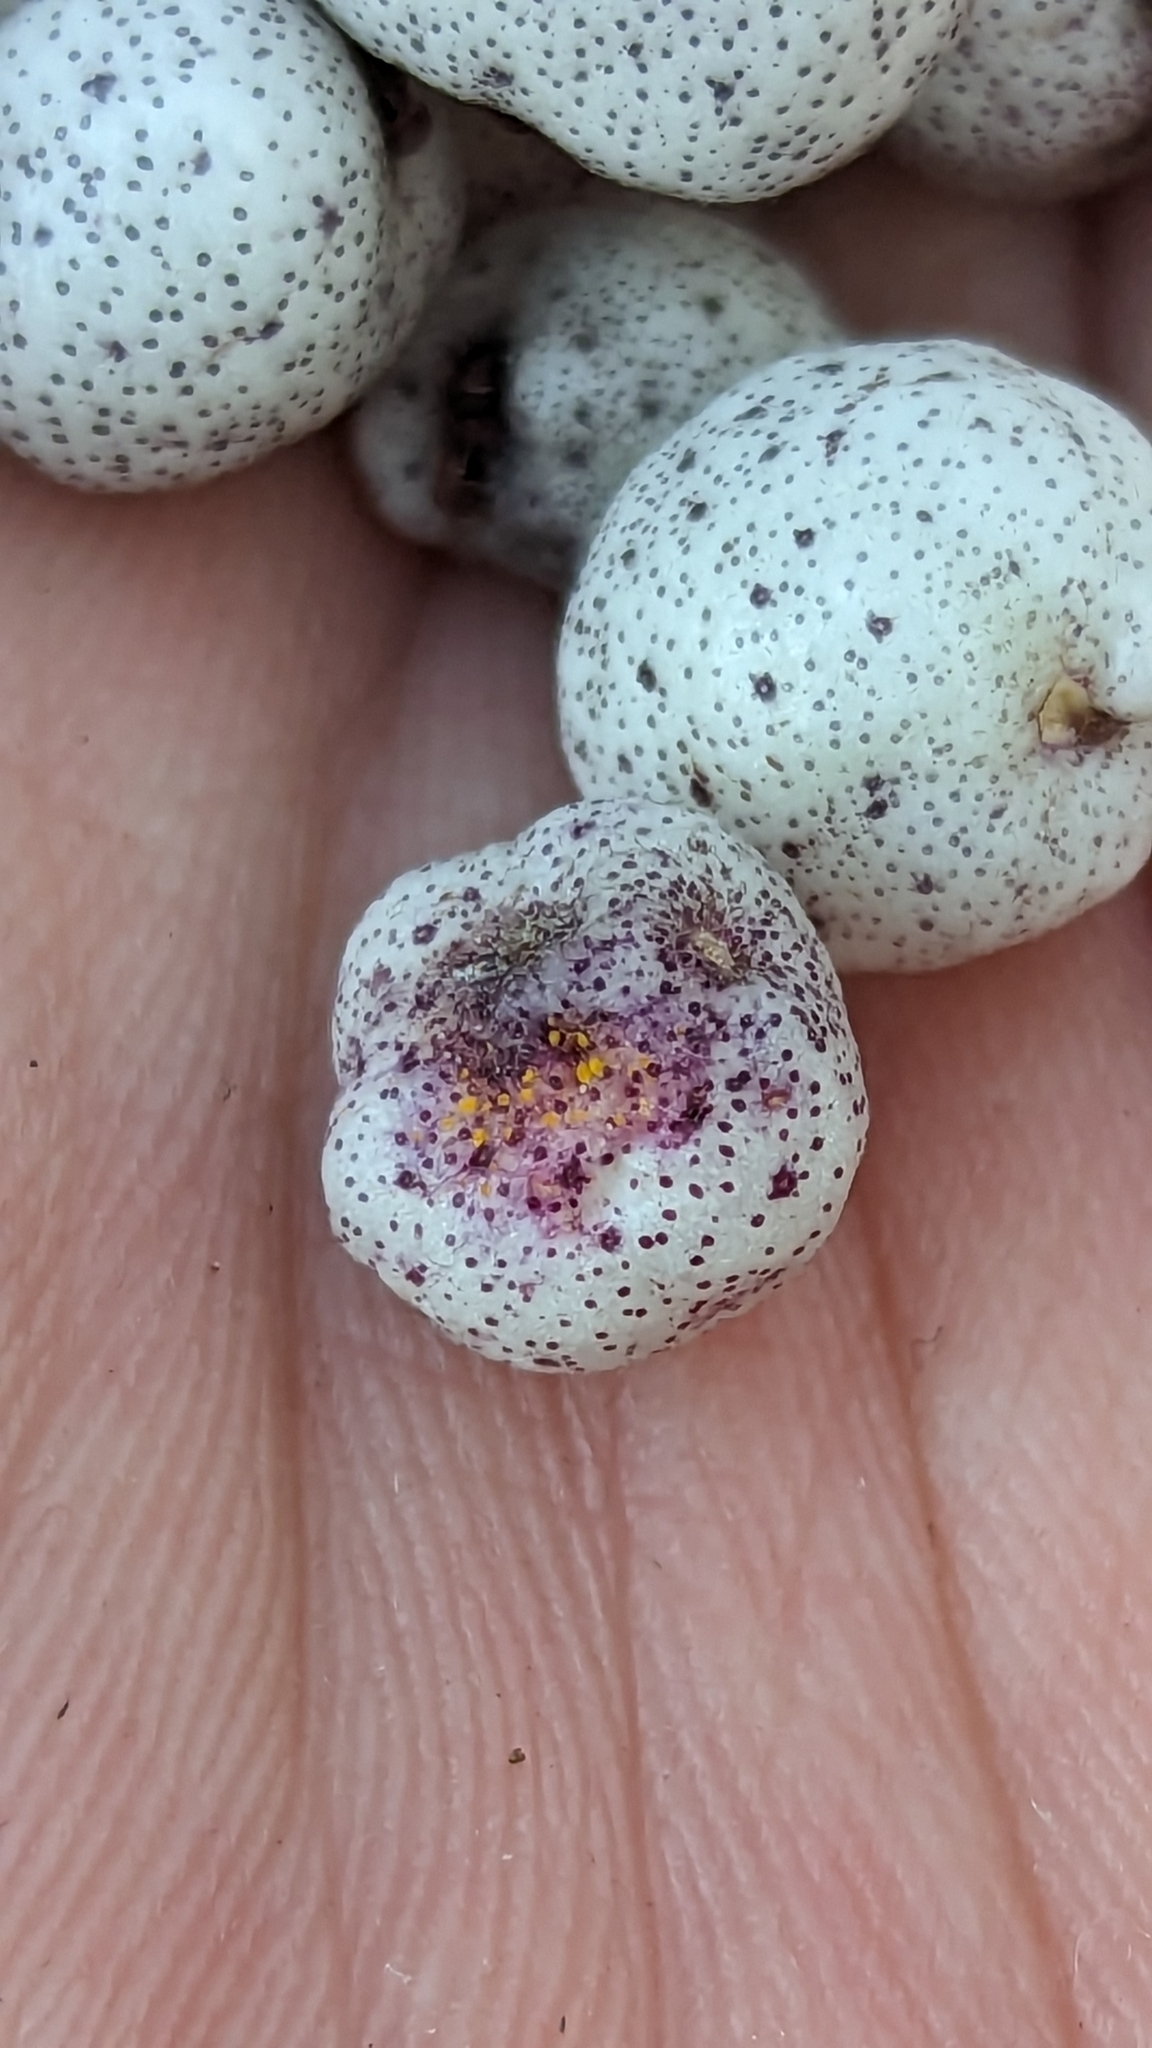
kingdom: Fungi
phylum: Basidiomycota
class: Pucciniomycetes
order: Pucciniales
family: Sphaerophragmiaceae
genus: Austropuccinia
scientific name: Austropuccinia psidii
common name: Myrtle rust
